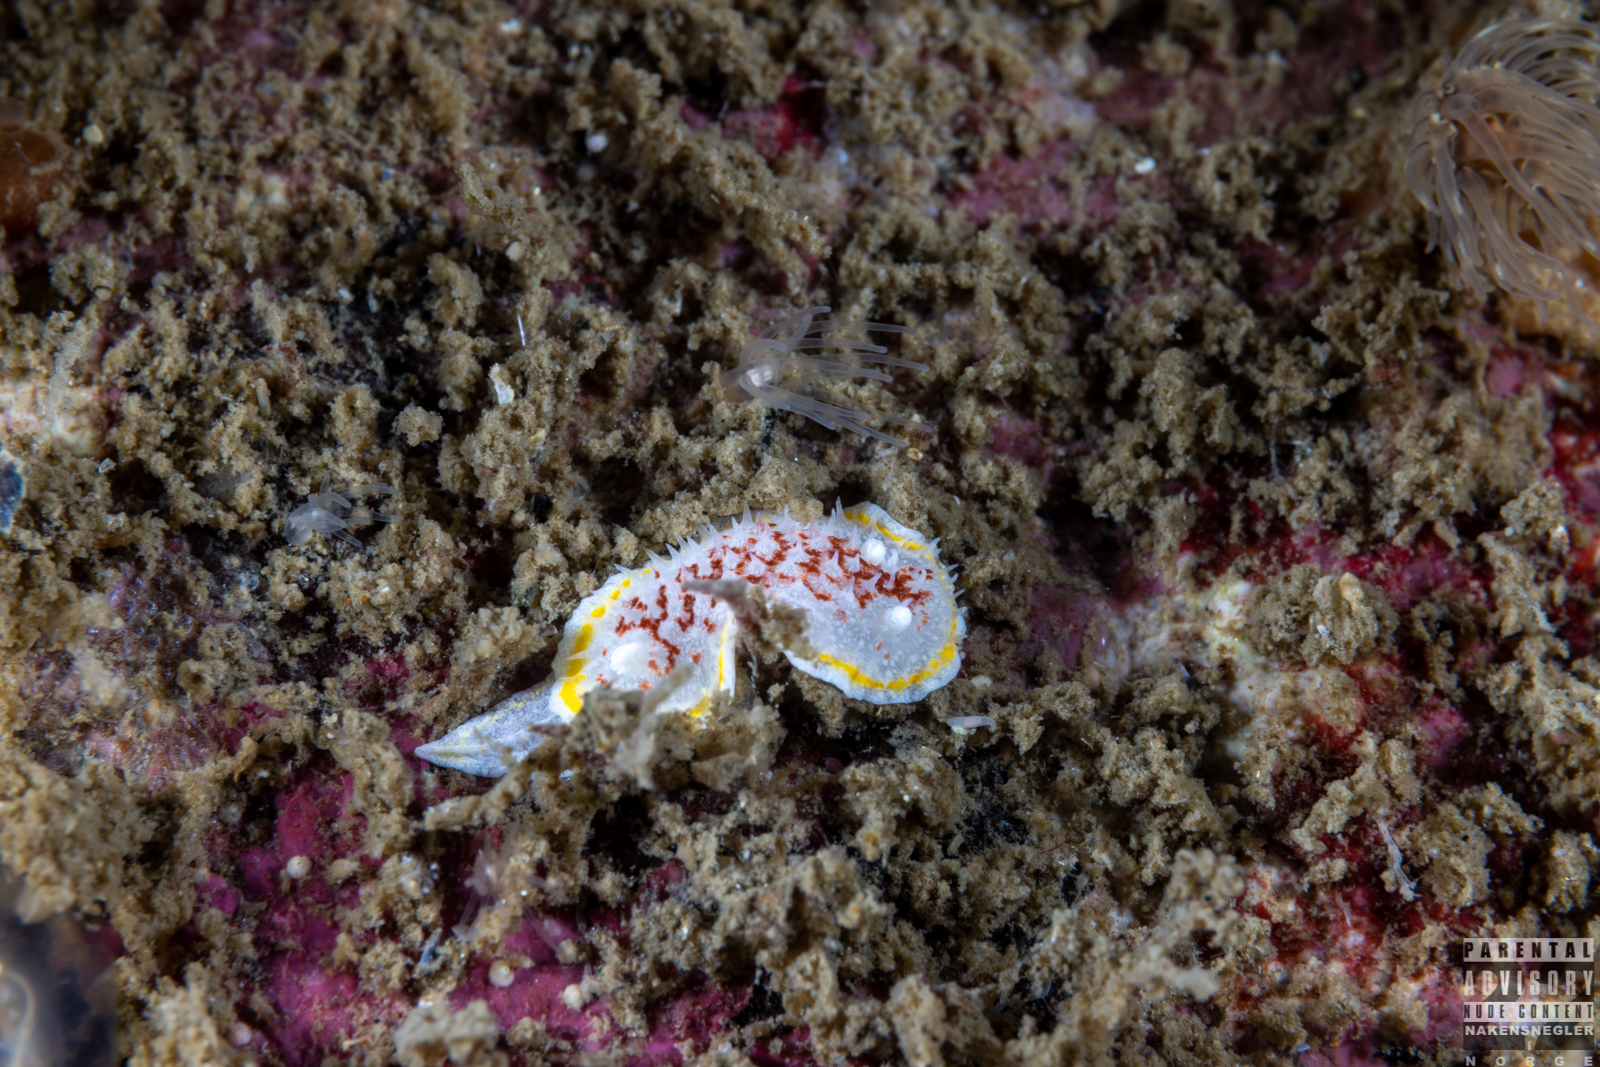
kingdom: Animalia
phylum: Mollusca
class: Gastropoda
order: Nudibranchia
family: Calycidorididae
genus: Diaphorodoris
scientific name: Diaphorodoris luteocincta
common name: Fried egg nudibranch
